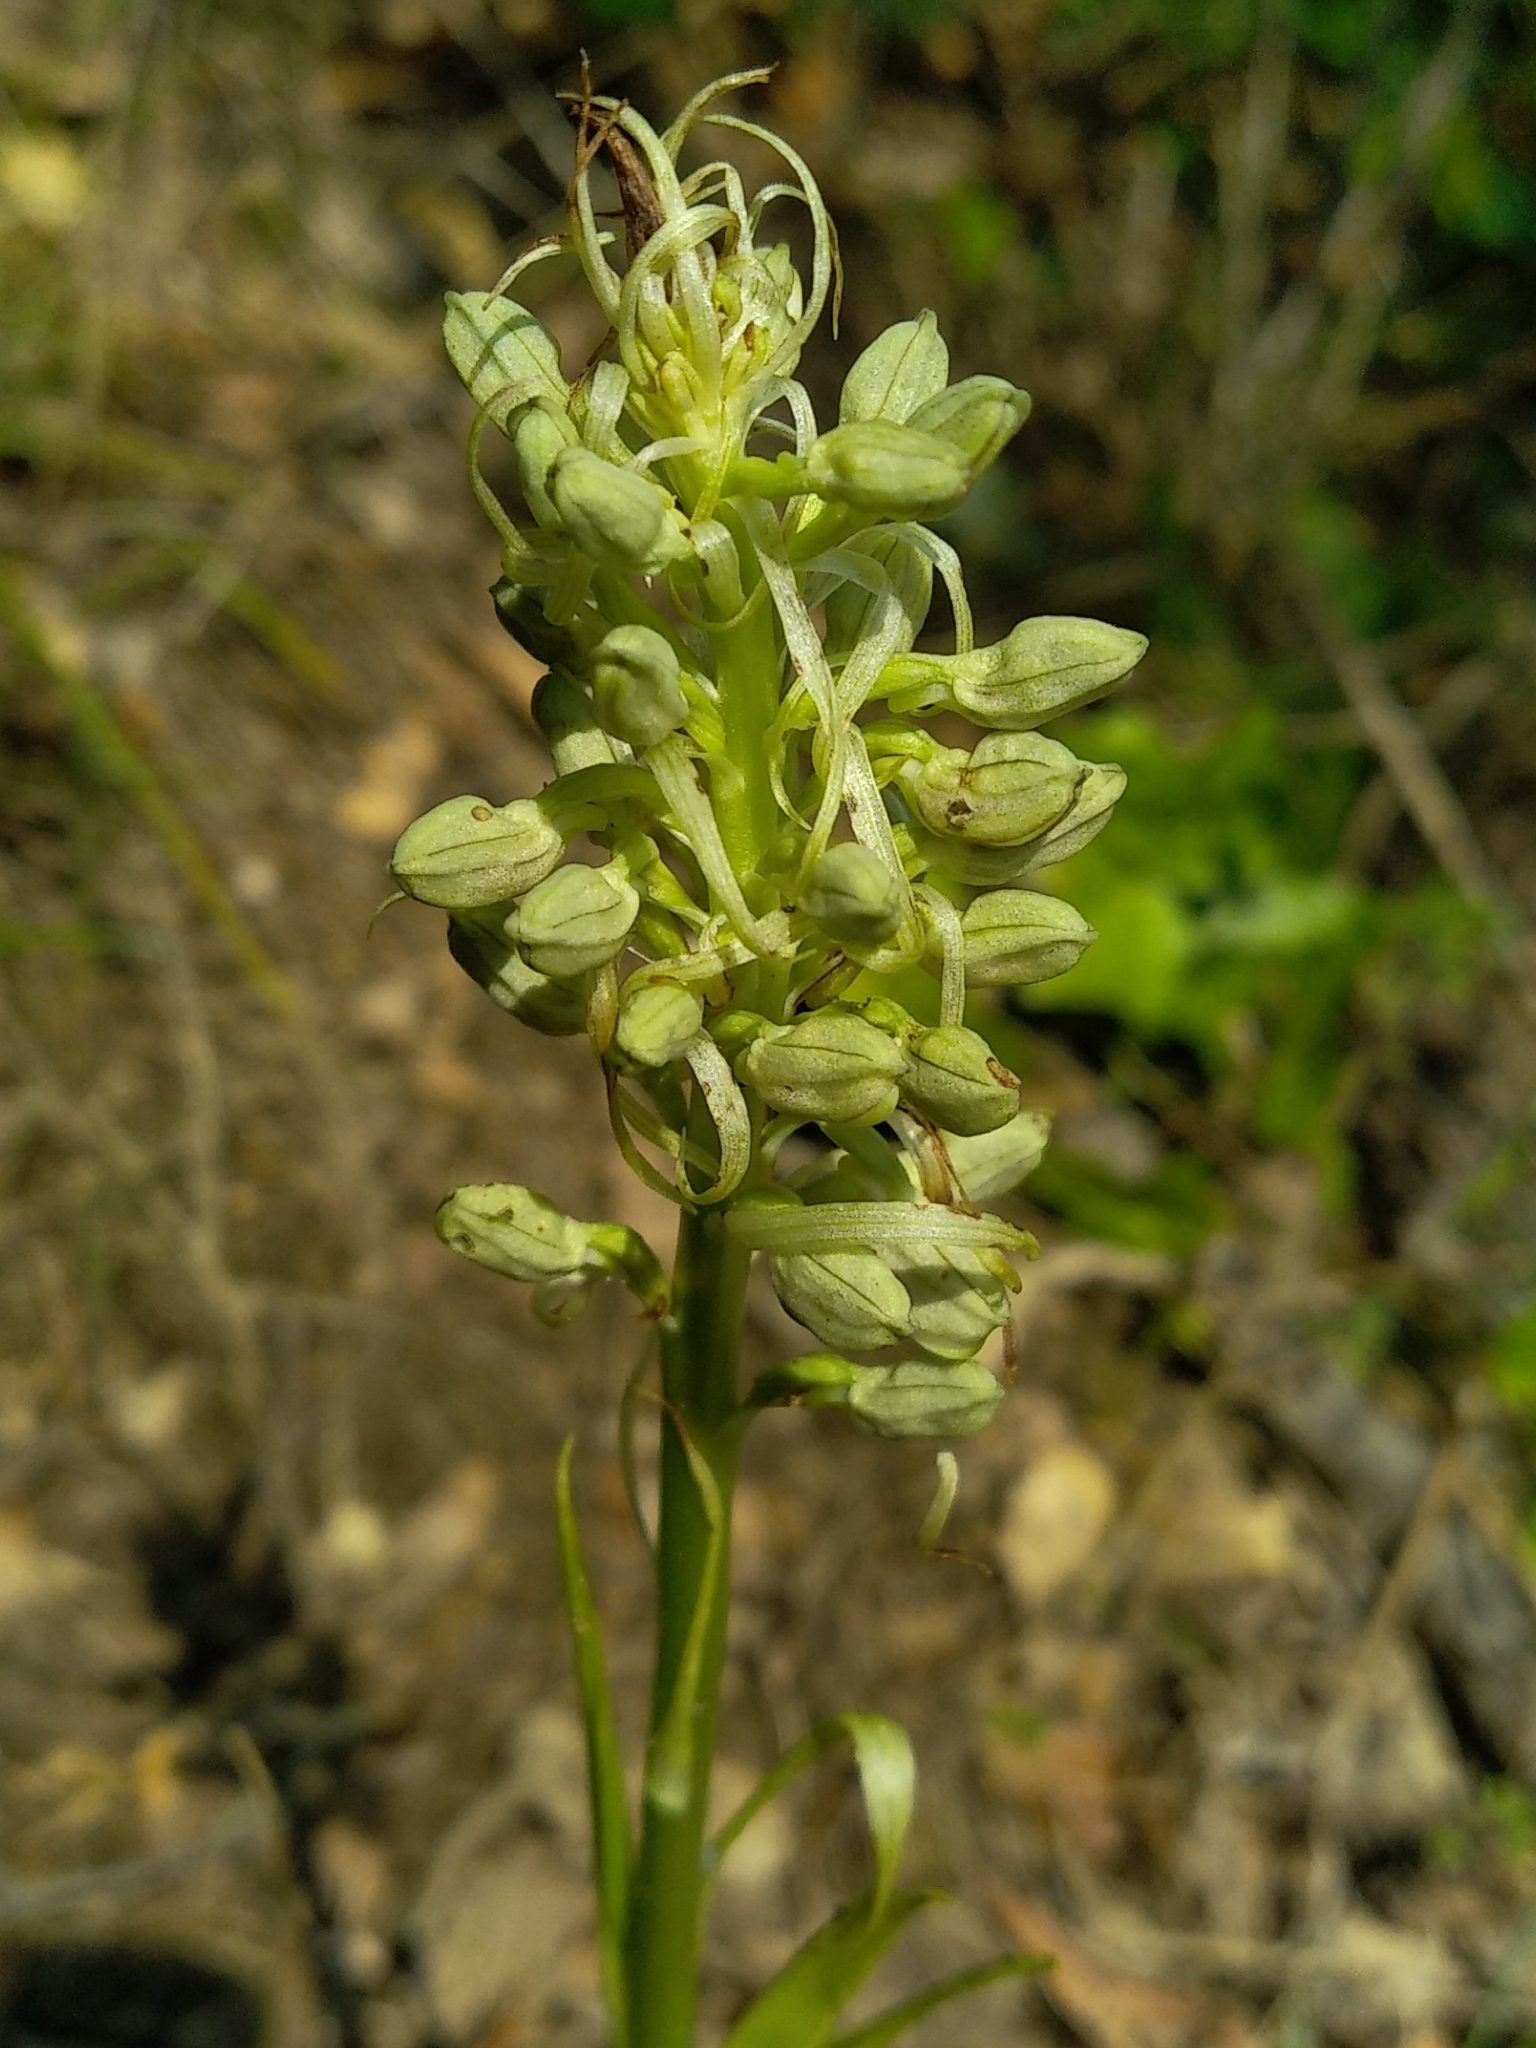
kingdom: Plantae
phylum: Tracheophyta
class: Liliopsida
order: Asparagales
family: Orchidaceae
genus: Himantoglossum
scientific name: Himantoglossum hircinum
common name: Lizard orchid
